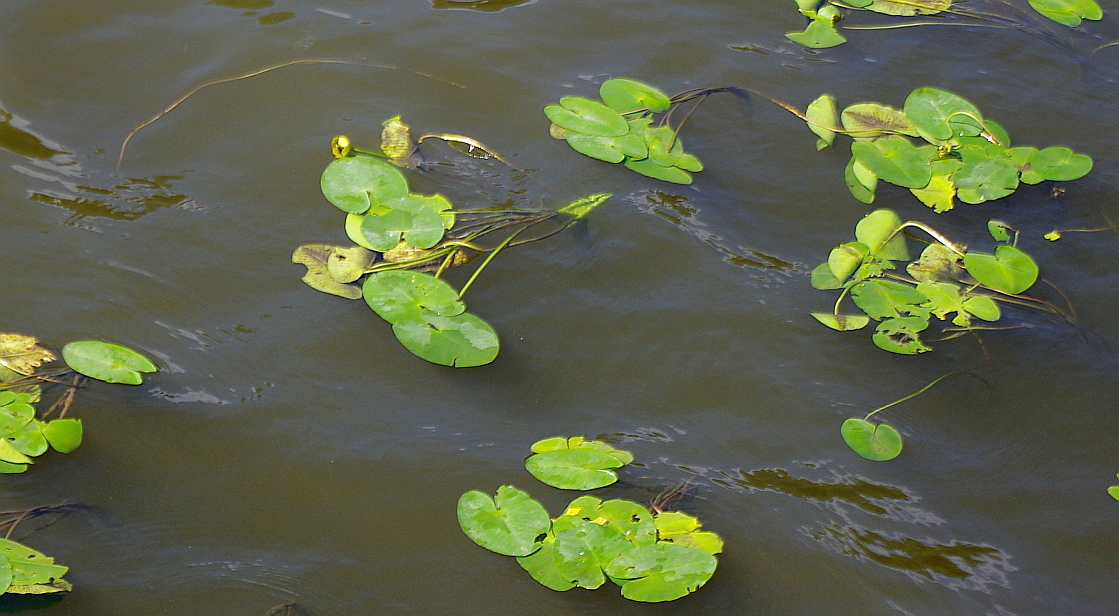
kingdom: Plantae
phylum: Tracheophyta
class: Magnoliopsida
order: Nymphaeales
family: Nymphaeaceae
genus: Nuphar
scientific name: Nuphar lutea
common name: Yellow water-lily
